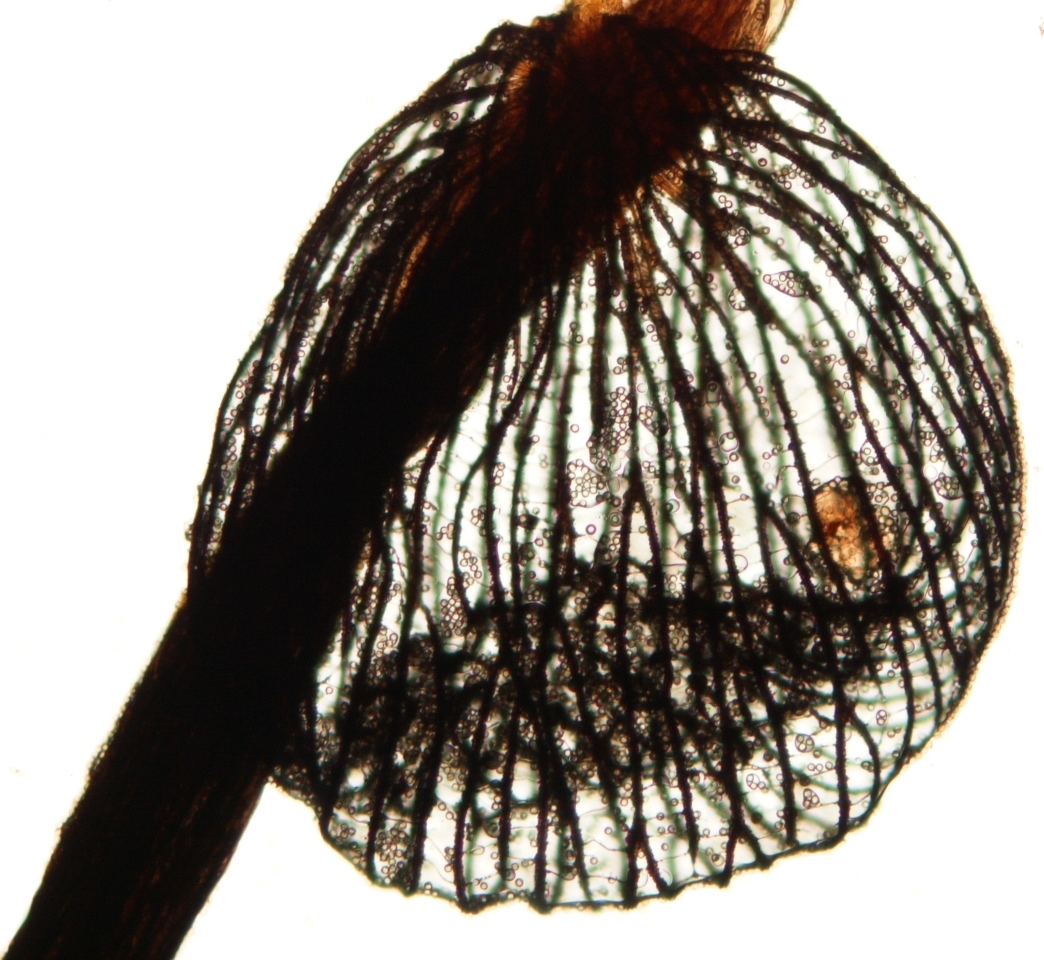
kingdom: Protozoa
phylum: Mycetozoa
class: Myxomycetes
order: Cribrariales
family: Cribrariaceae
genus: Cribraria
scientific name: Cribraria cancellata
